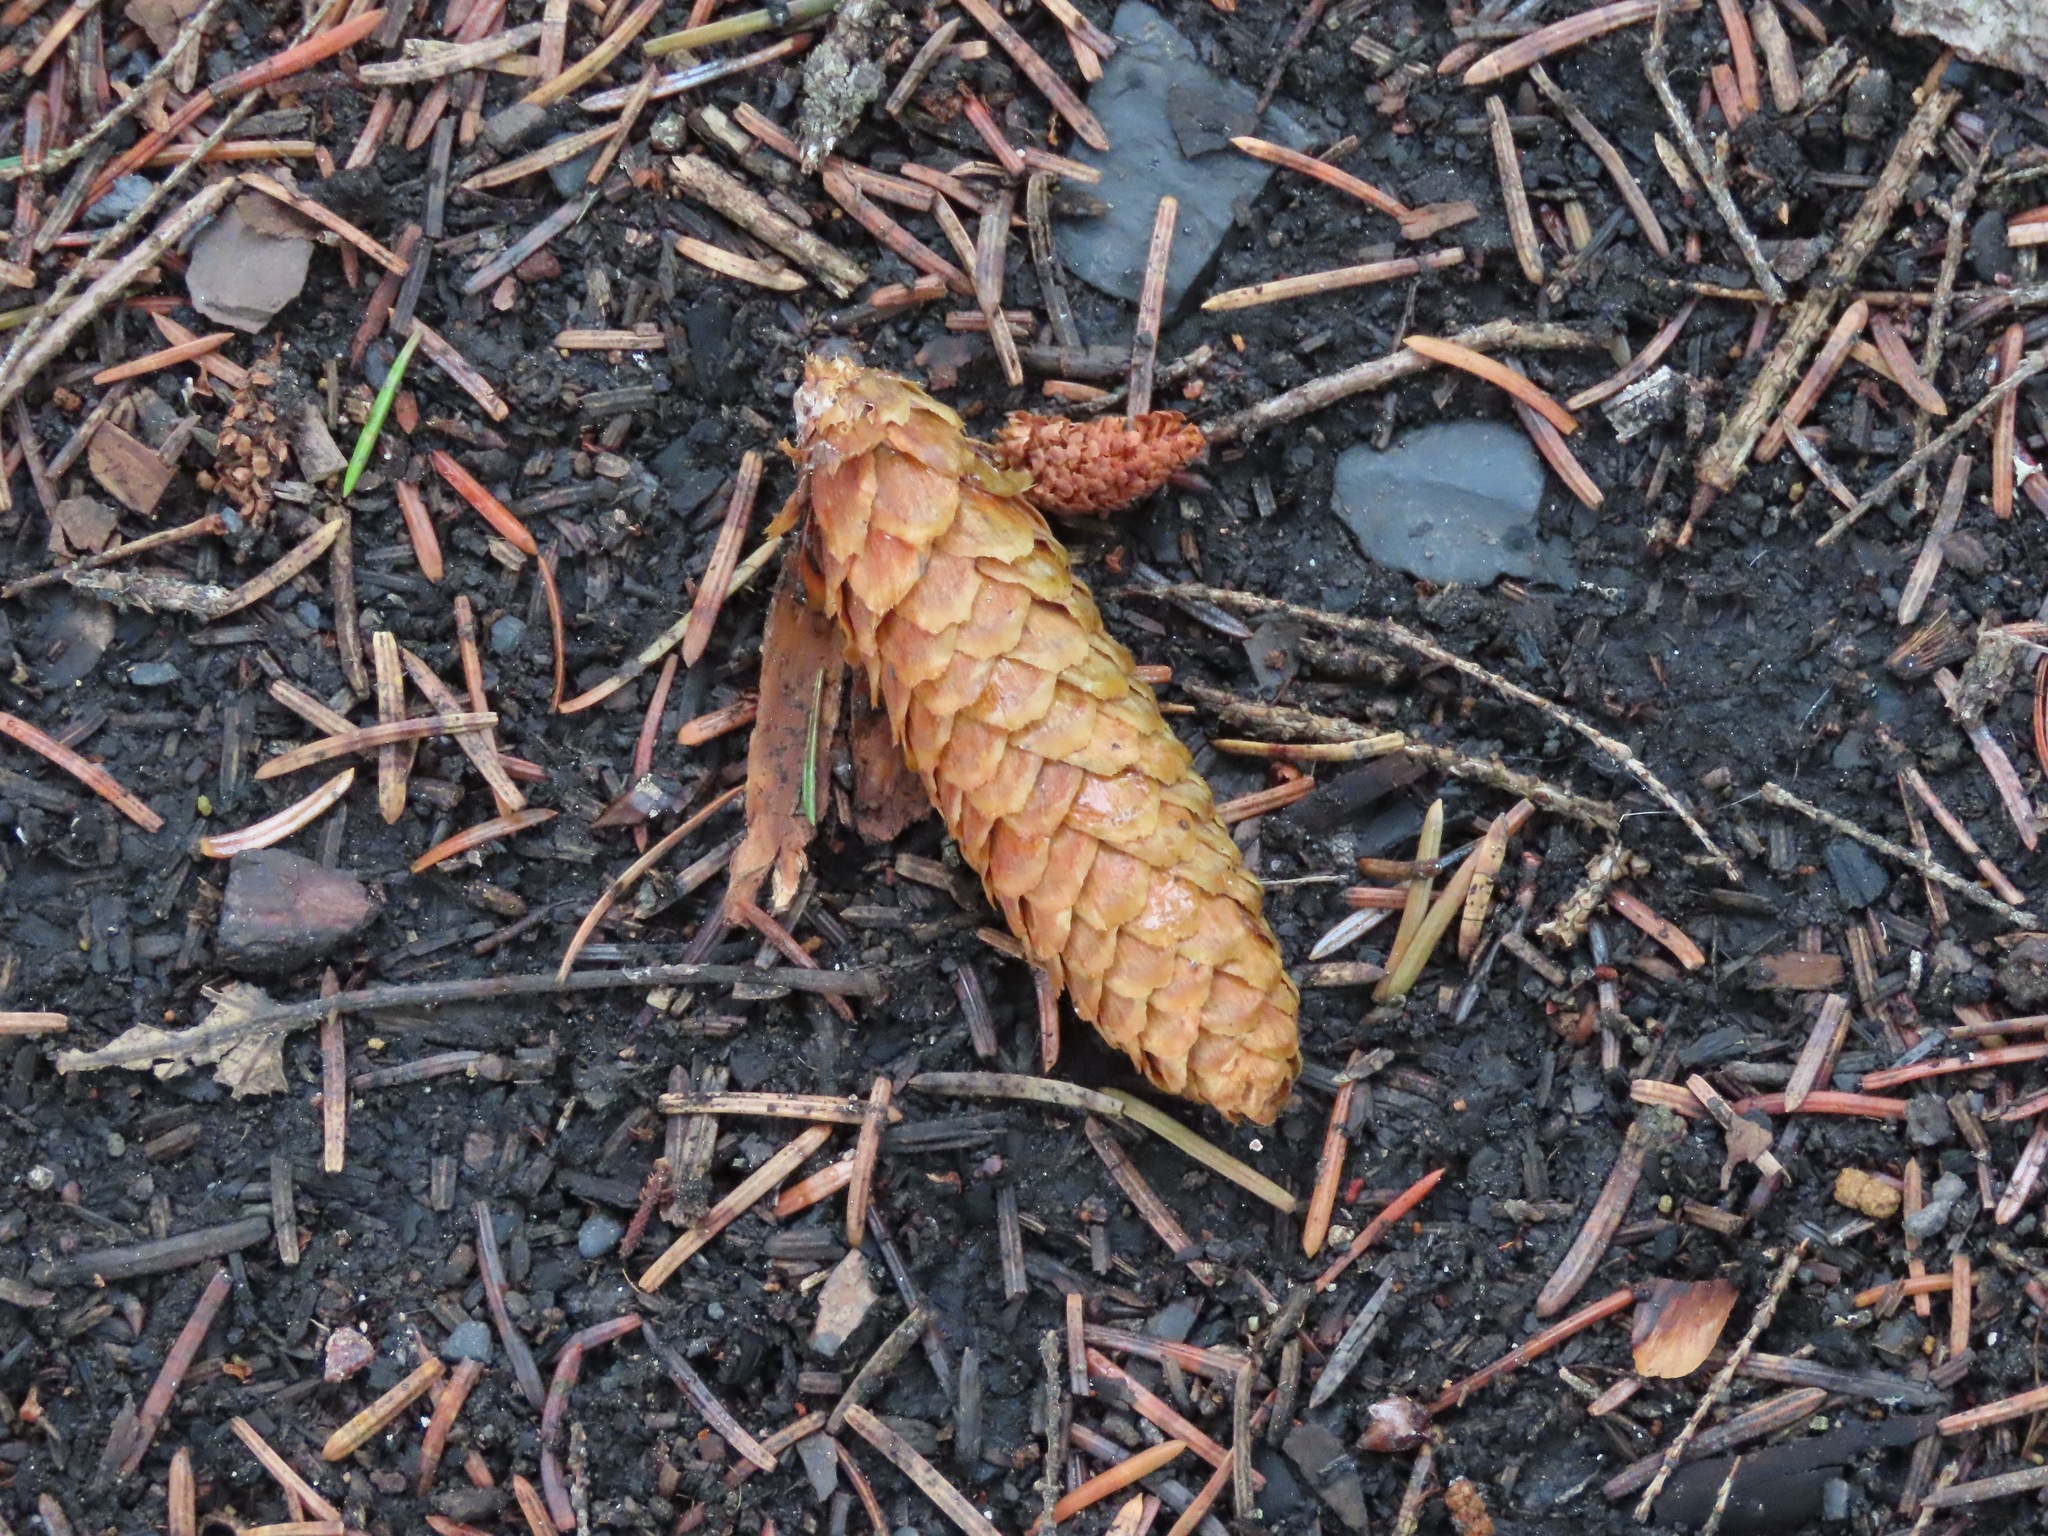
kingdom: Plantae
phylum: Tracheophyta
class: Pinopsida
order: Pinales
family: Pinaceae
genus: Picea
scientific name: Picea sitchensis
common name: Sitka spruce
